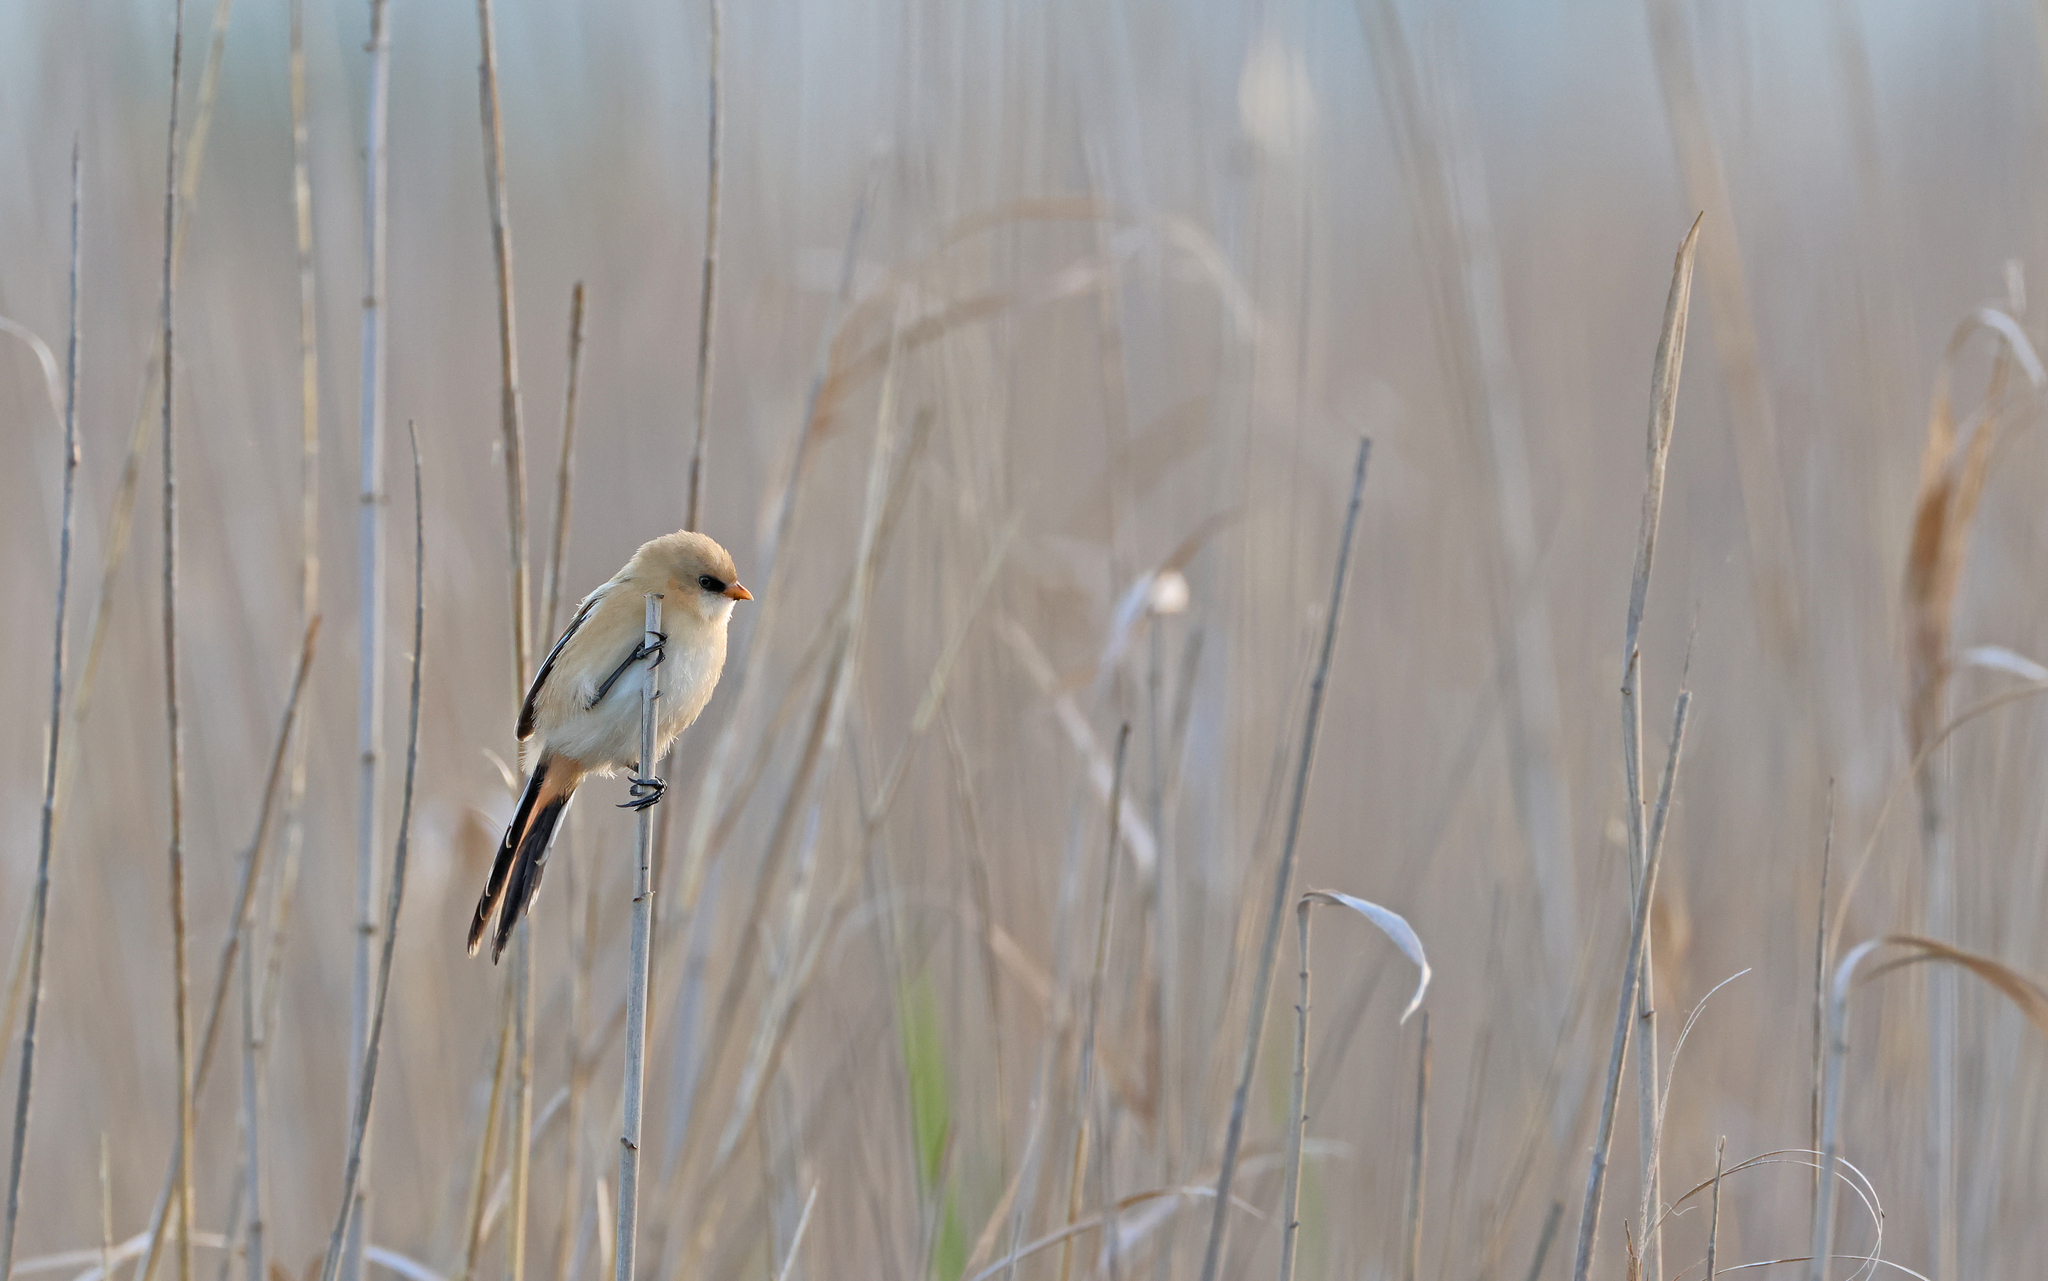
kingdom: Animalia
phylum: Chordata
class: Aves
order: Passeriformes
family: Panuridae
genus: Panurus
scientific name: Panurus biarmicus
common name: Bearded reedling
